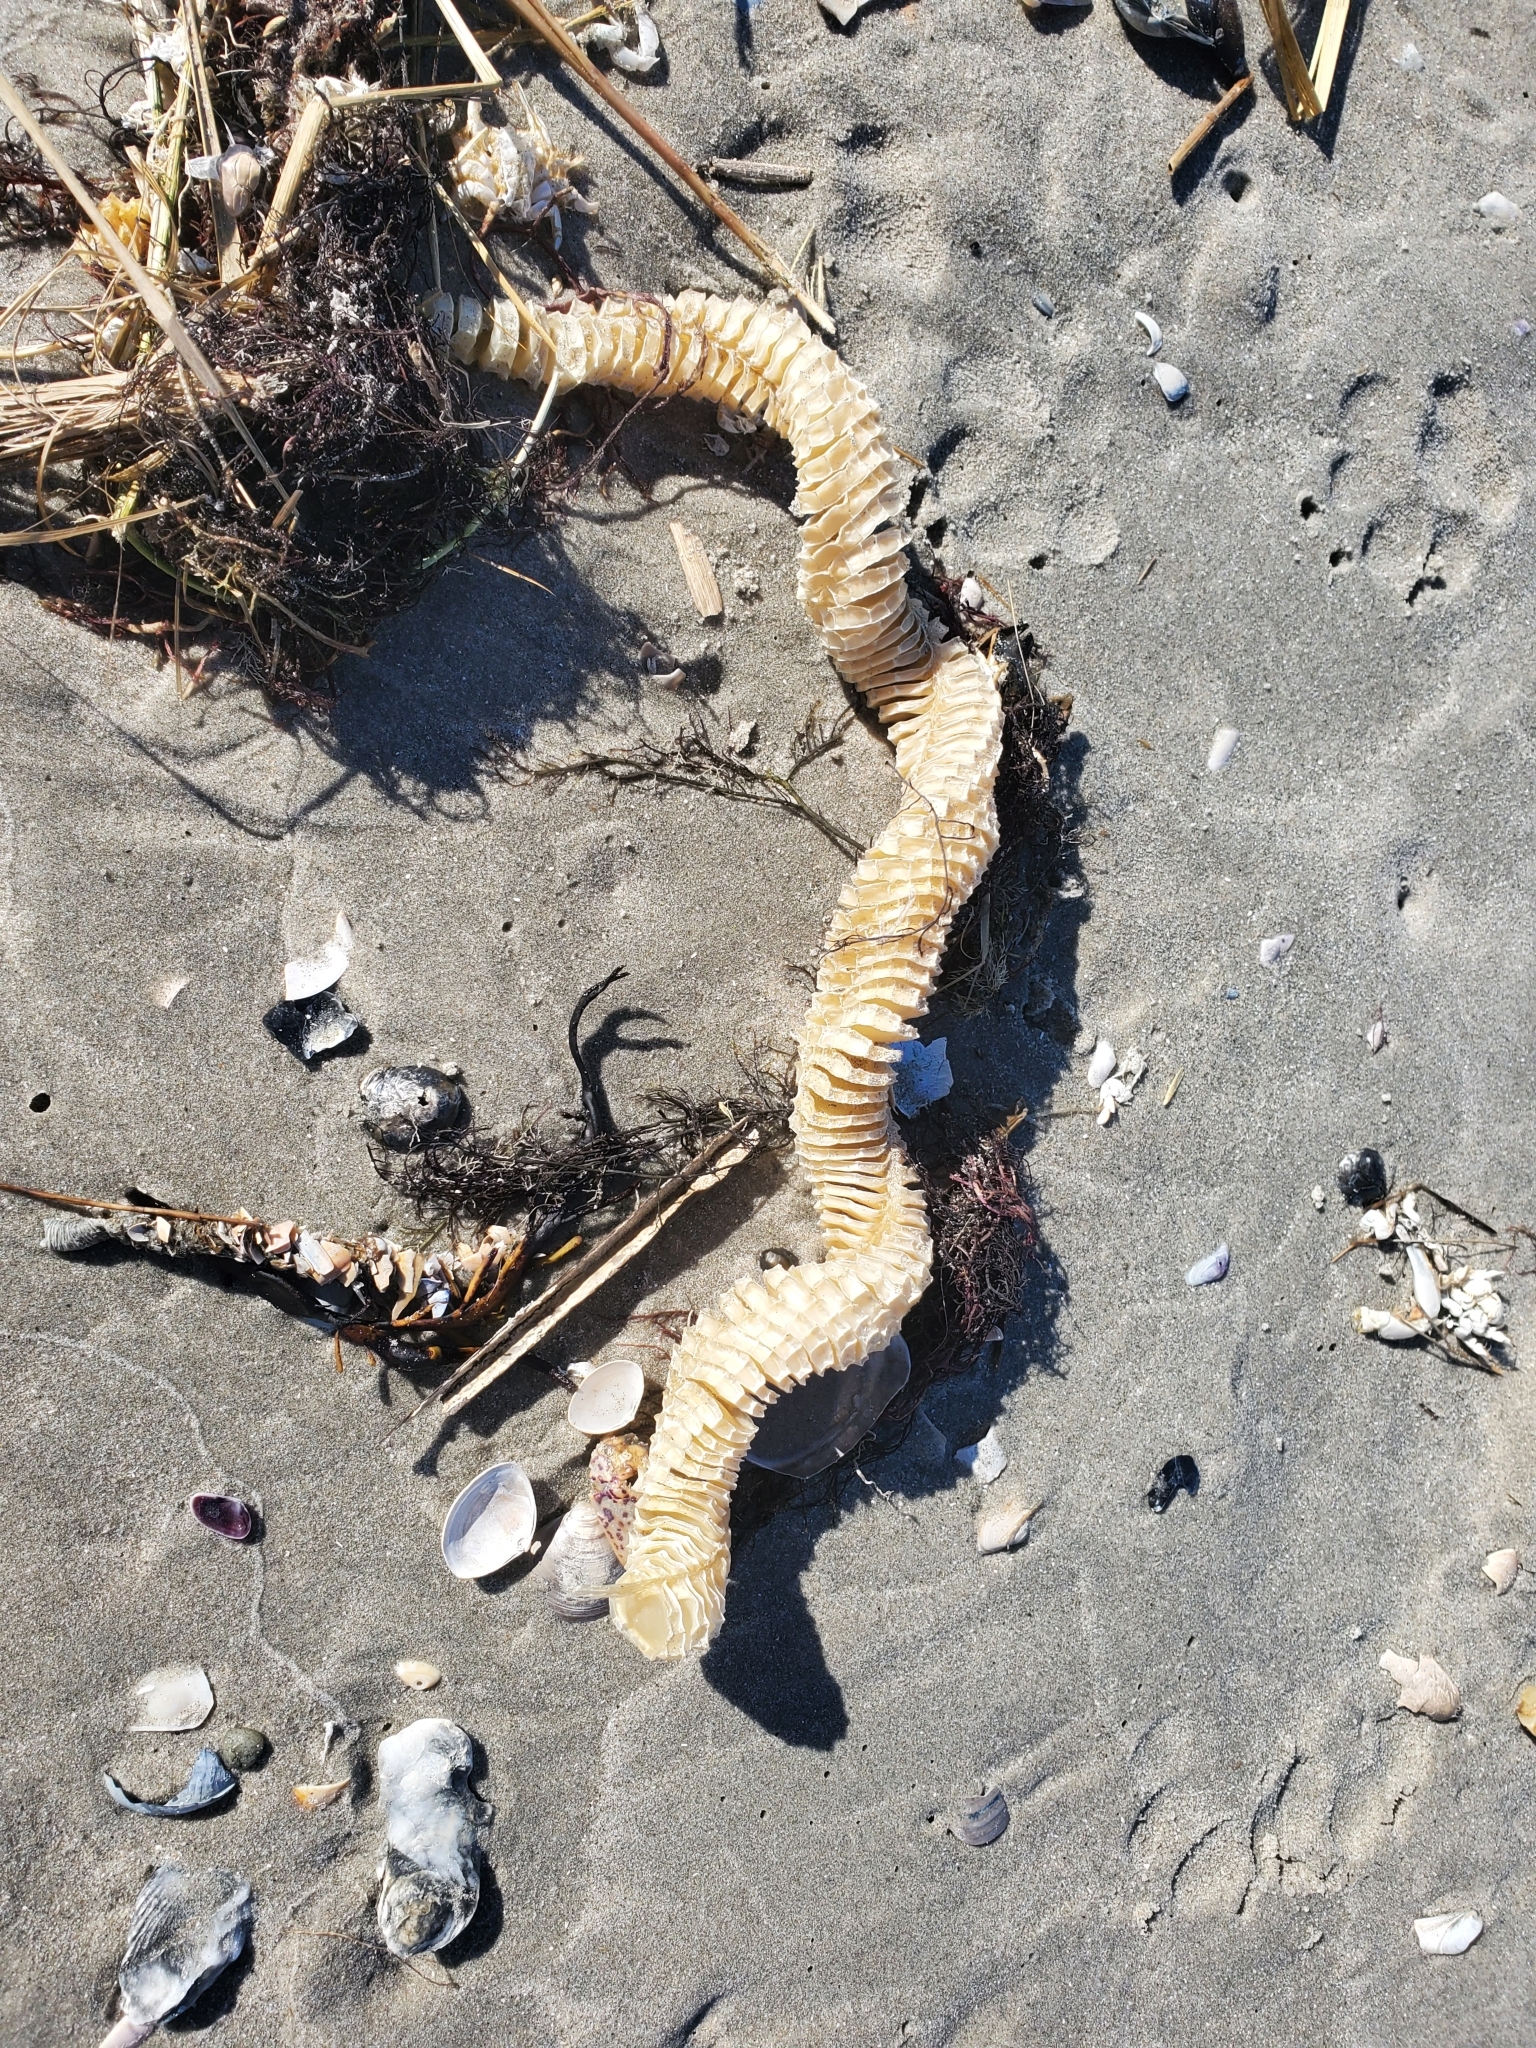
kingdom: Animalia
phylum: Mollusca
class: Gastropoda
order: Neogastropoda
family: Busyconidae
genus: Busycon
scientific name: Busycon carica
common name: Knobbed whelk
